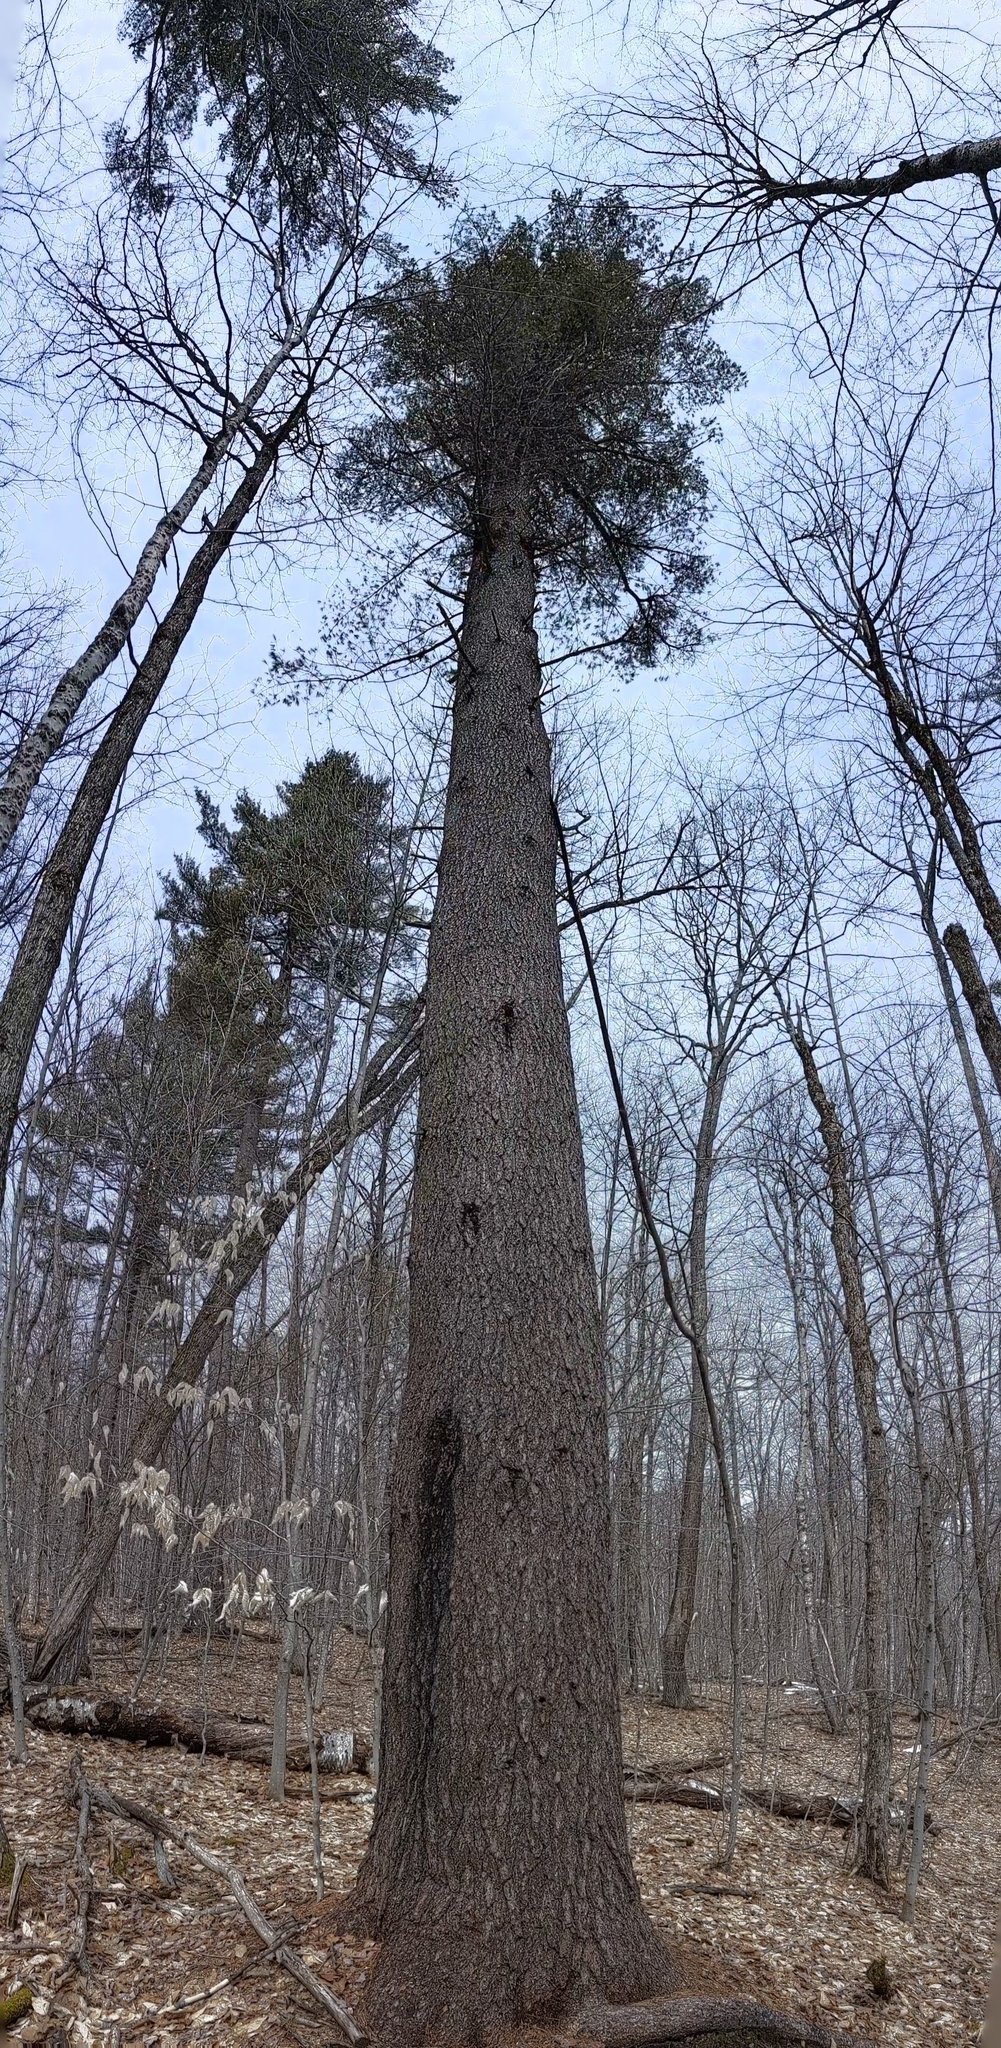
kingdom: Plantae
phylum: Tracheophyta
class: Pinopsida
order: Pinales
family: Pinaceae
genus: Pinus
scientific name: Pinus strobus
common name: Weymouth pine
